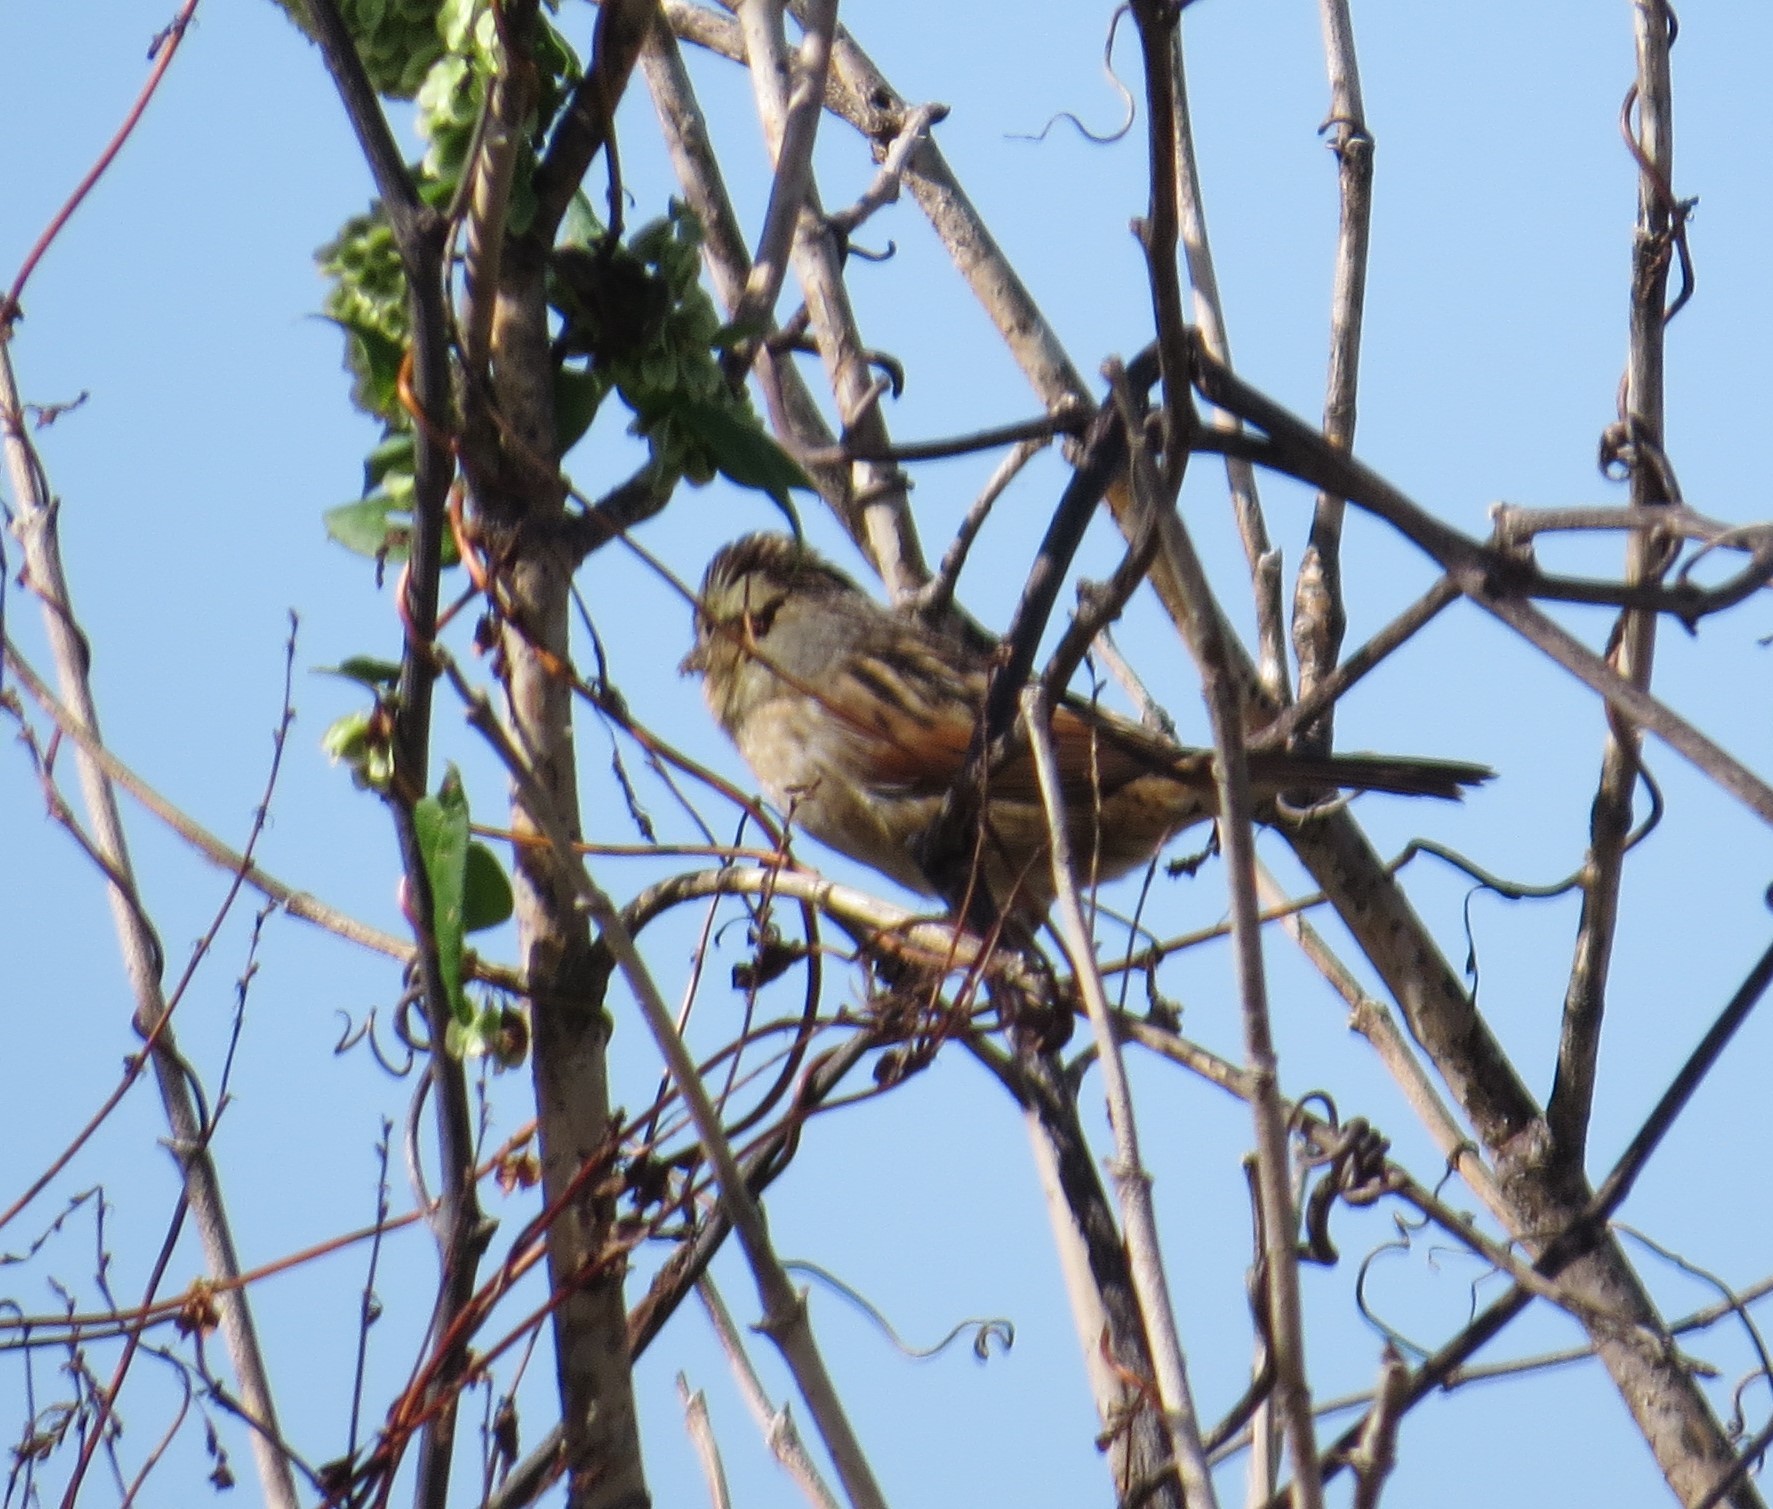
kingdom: Animalia
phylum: Chordata
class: Aves
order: Passeriformes
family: Passerellidae
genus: Melospiza
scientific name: Melospiza georgiana
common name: Swamp sparrow
